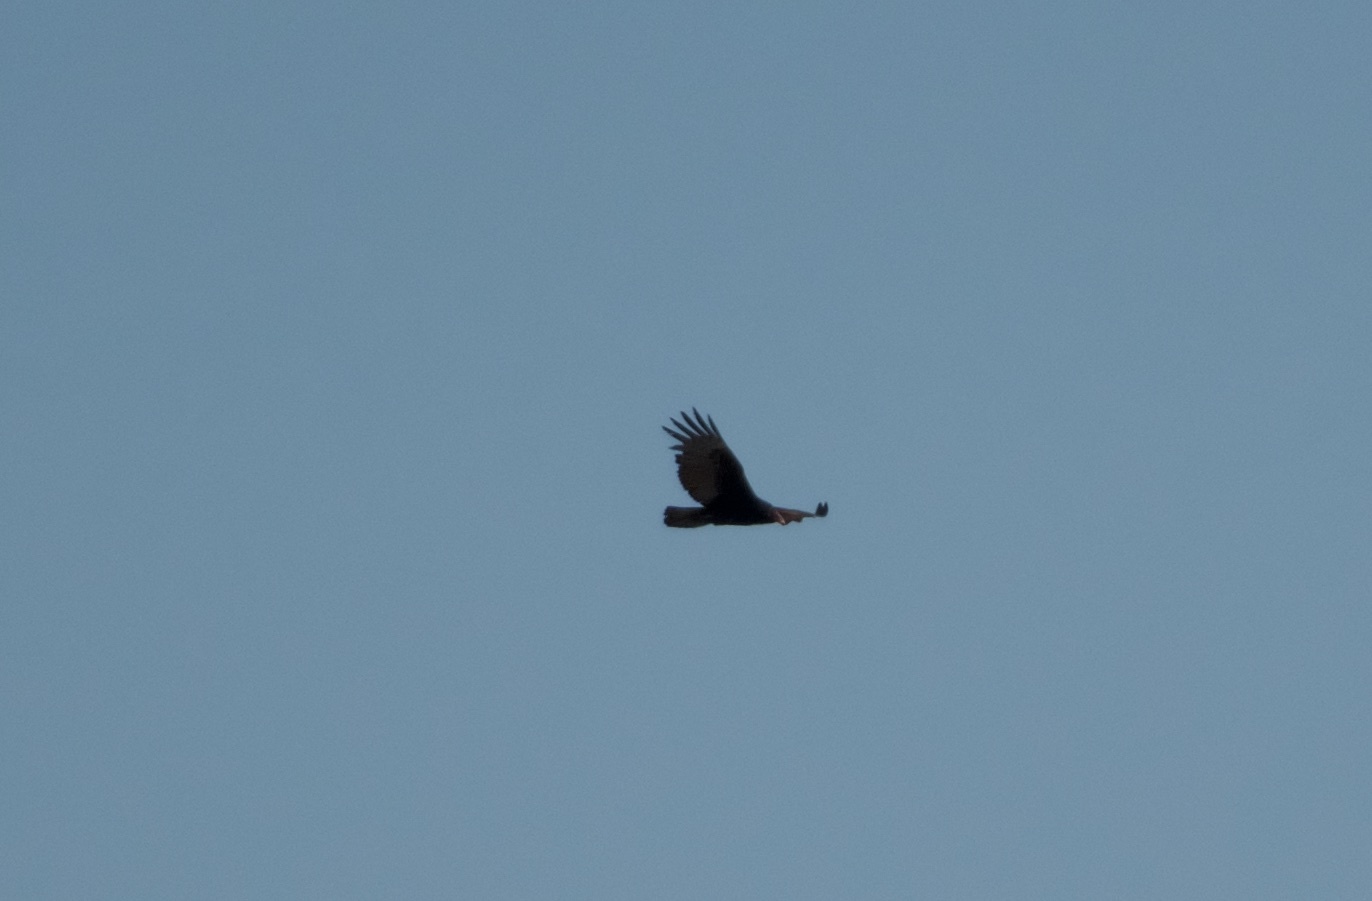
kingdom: Animalia
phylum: Chordata
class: Aves
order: Accipitriformes
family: Cathartidae
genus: Cathartes
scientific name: Cathartes aura
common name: Turkey vulture
